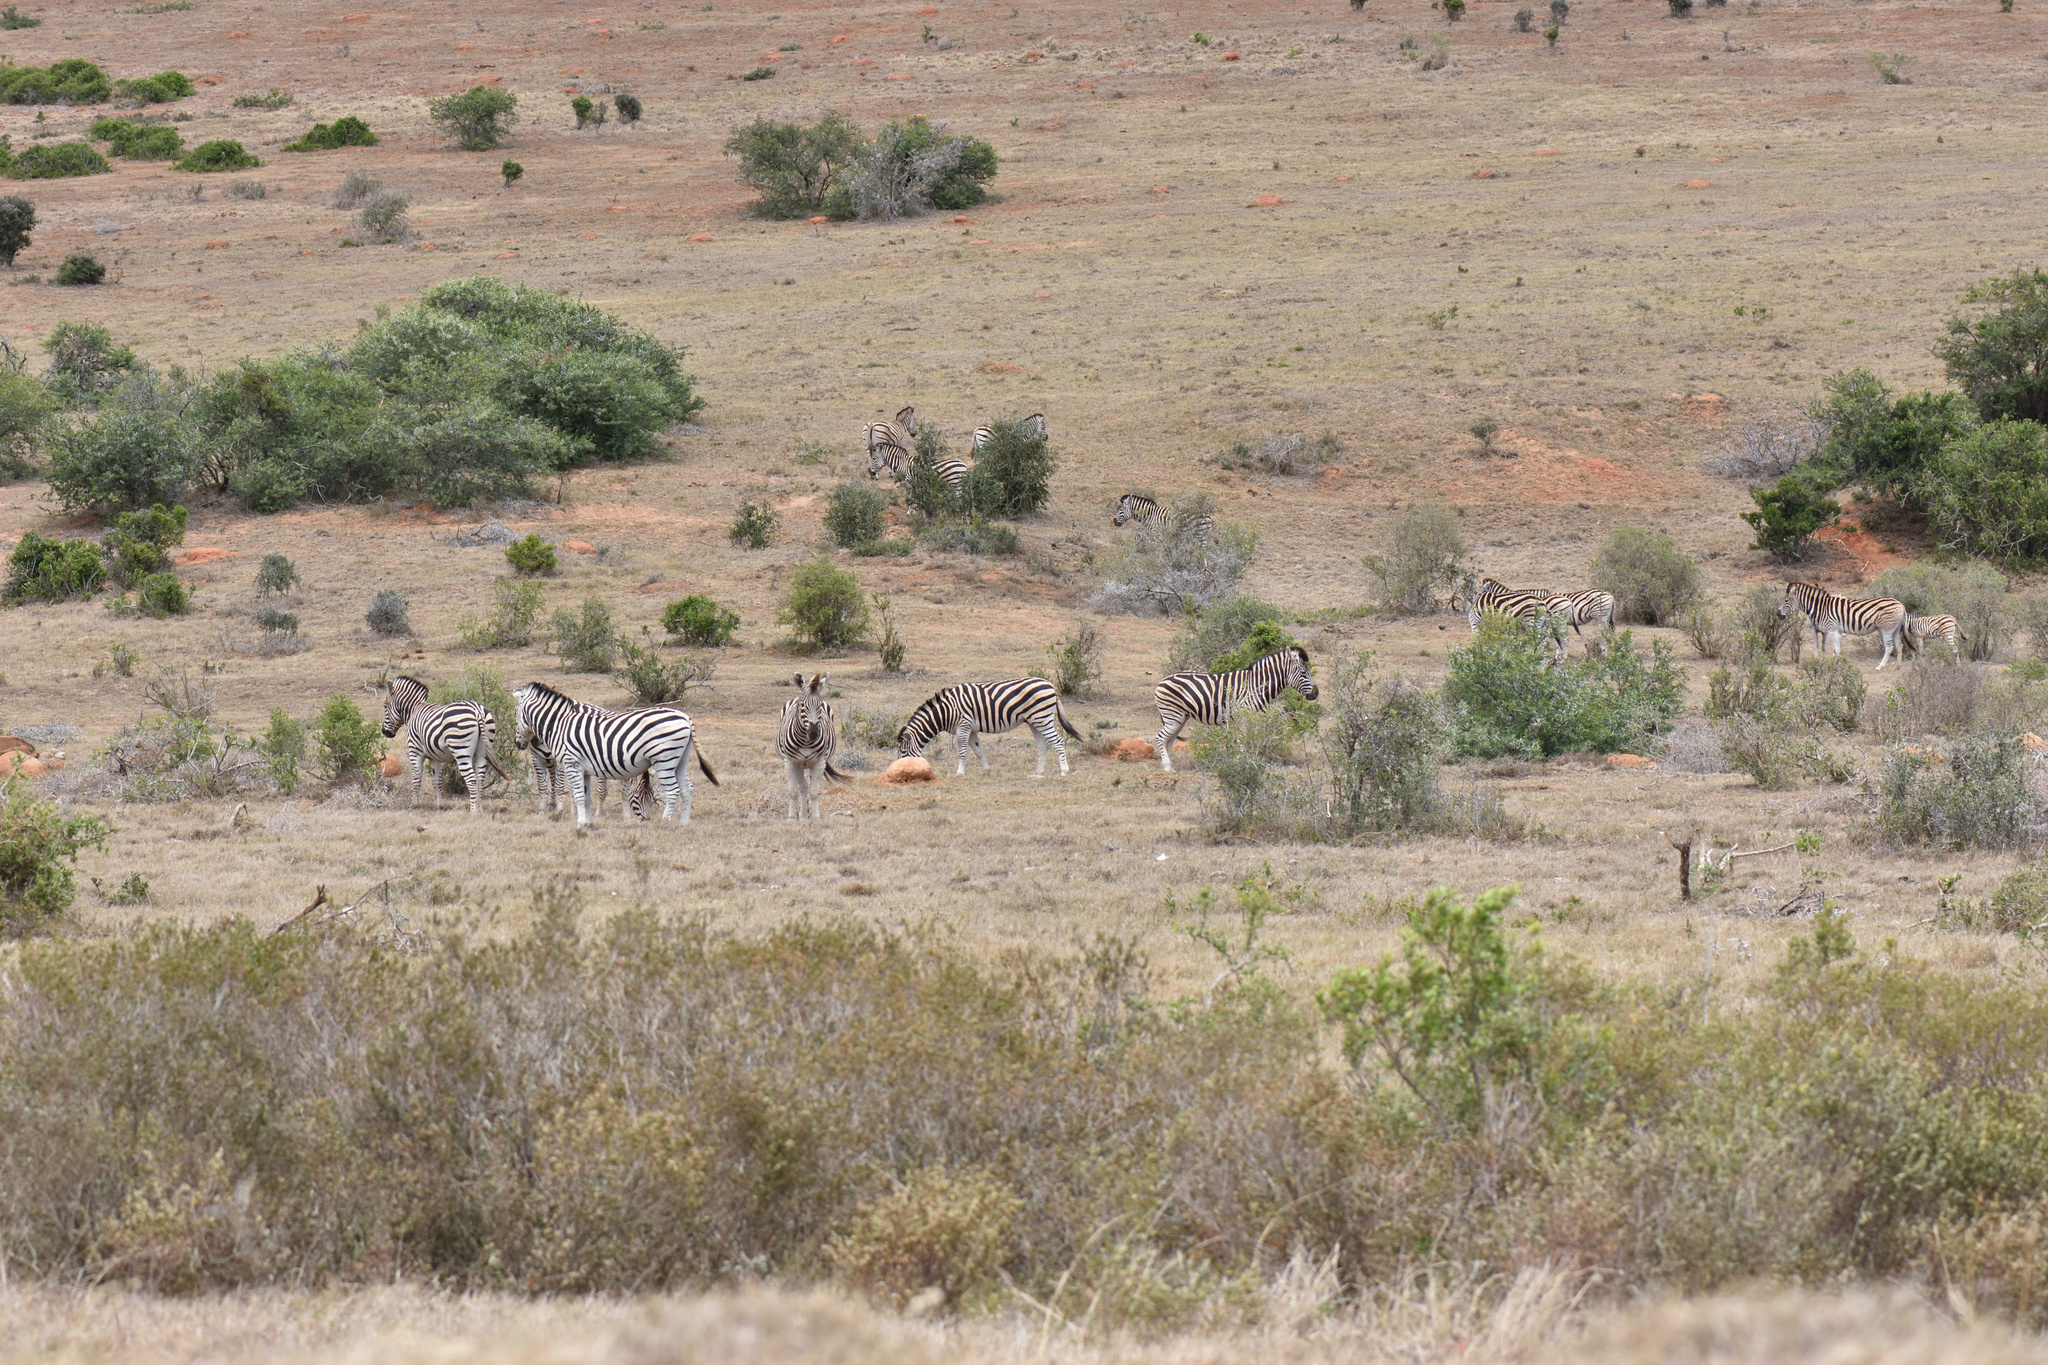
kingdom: Animalia
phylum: Chordata
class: Mammalia
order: Perissodactyla
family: Equidae
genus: Equus
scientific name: Equus quagga
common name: Plains zebra
